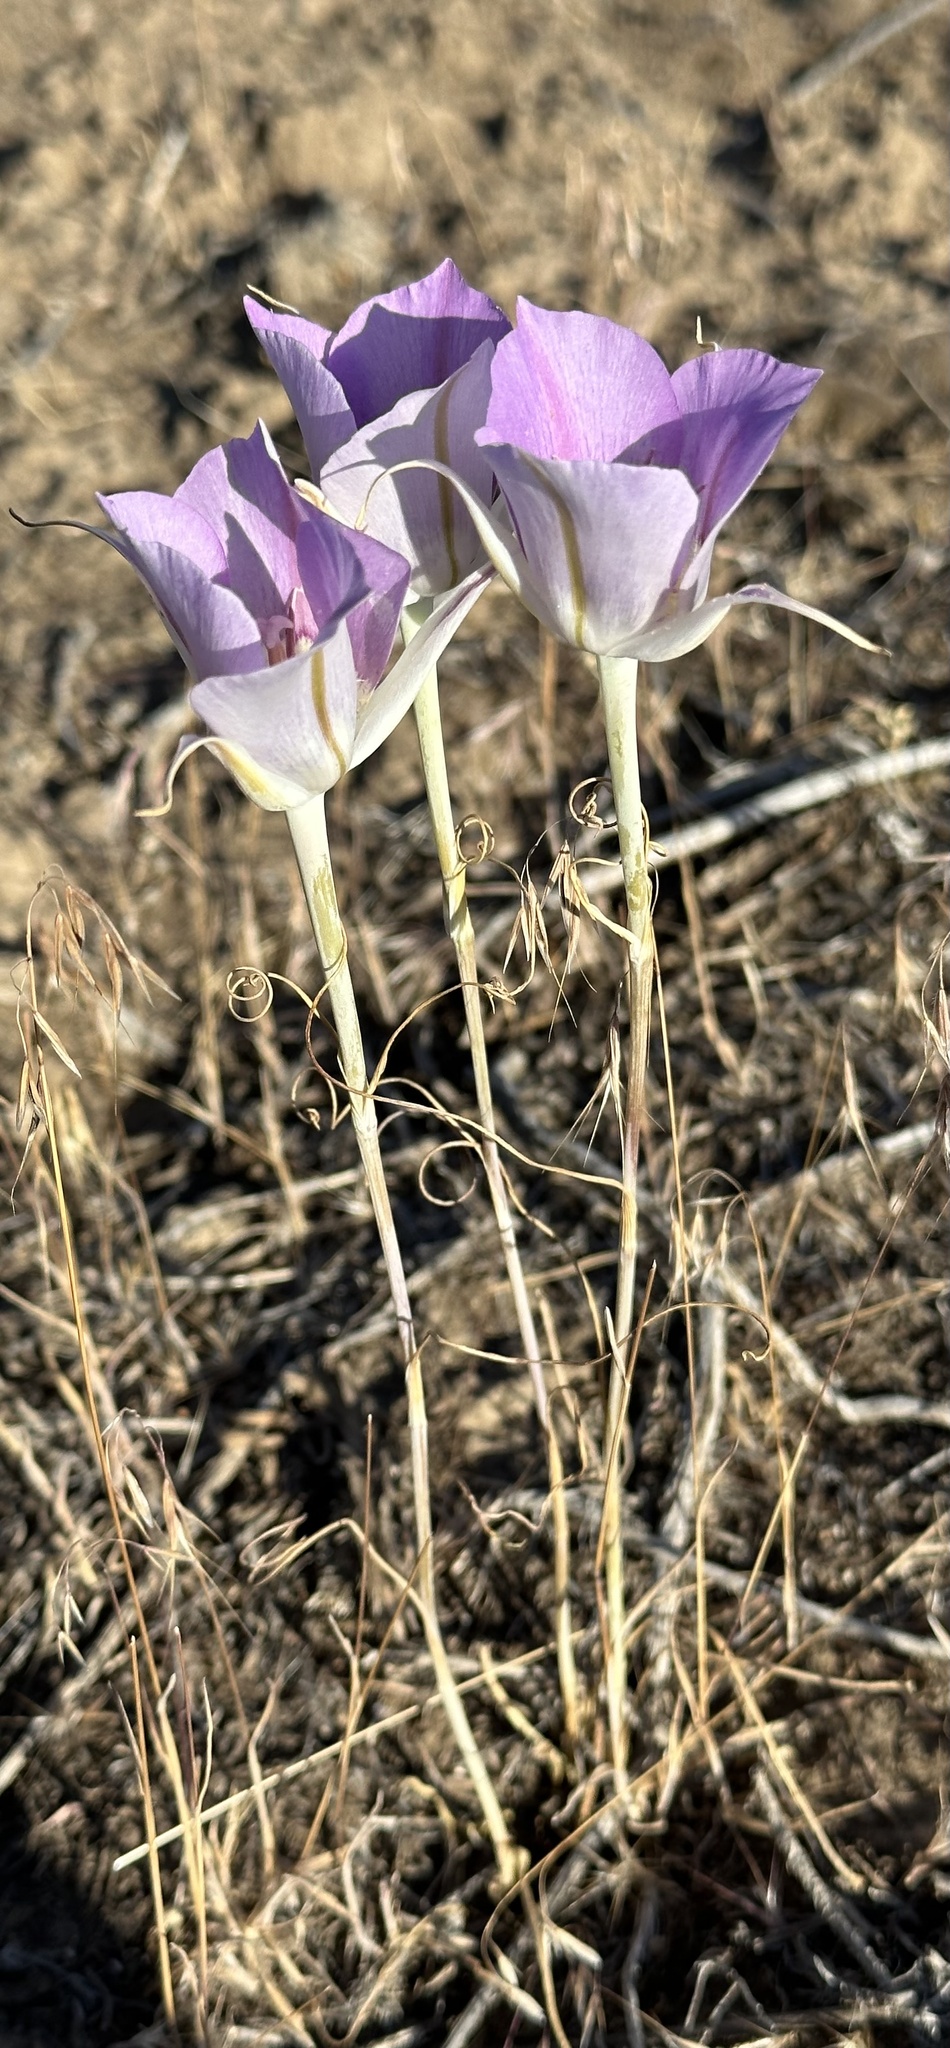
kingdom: Plantae
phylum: Tracheophyta
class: Liliopsida
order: Liliales
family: Liliaceae
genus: Calochortus
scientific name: Calochortus macrocarpus
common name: Green-band mariposa lily
